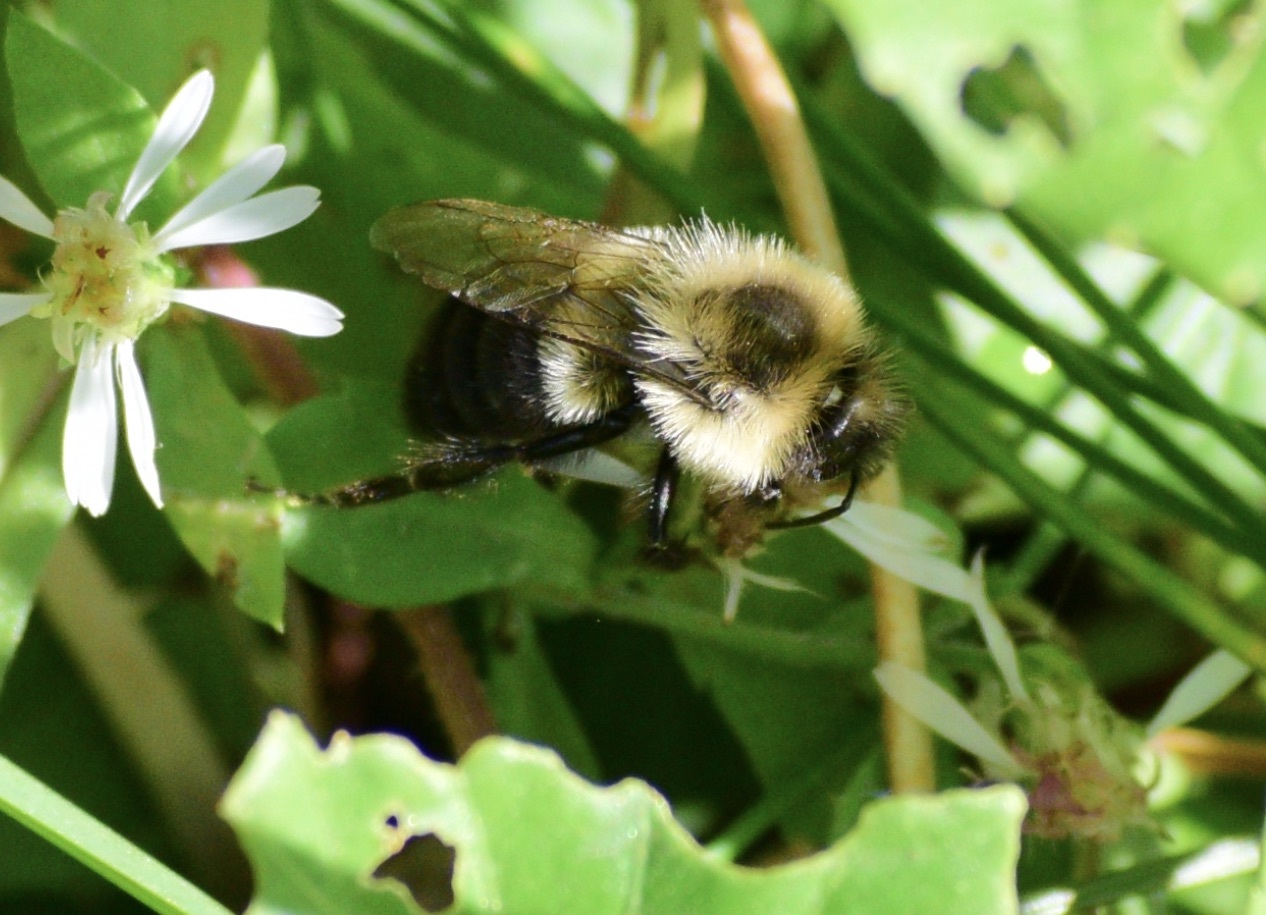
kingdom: Animalia
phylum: Arthropoda
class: Insecta
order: Hymenoptera
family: Apidae
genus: Bombus
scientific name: Bombus impatiens
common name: Common eastern bumble bee
